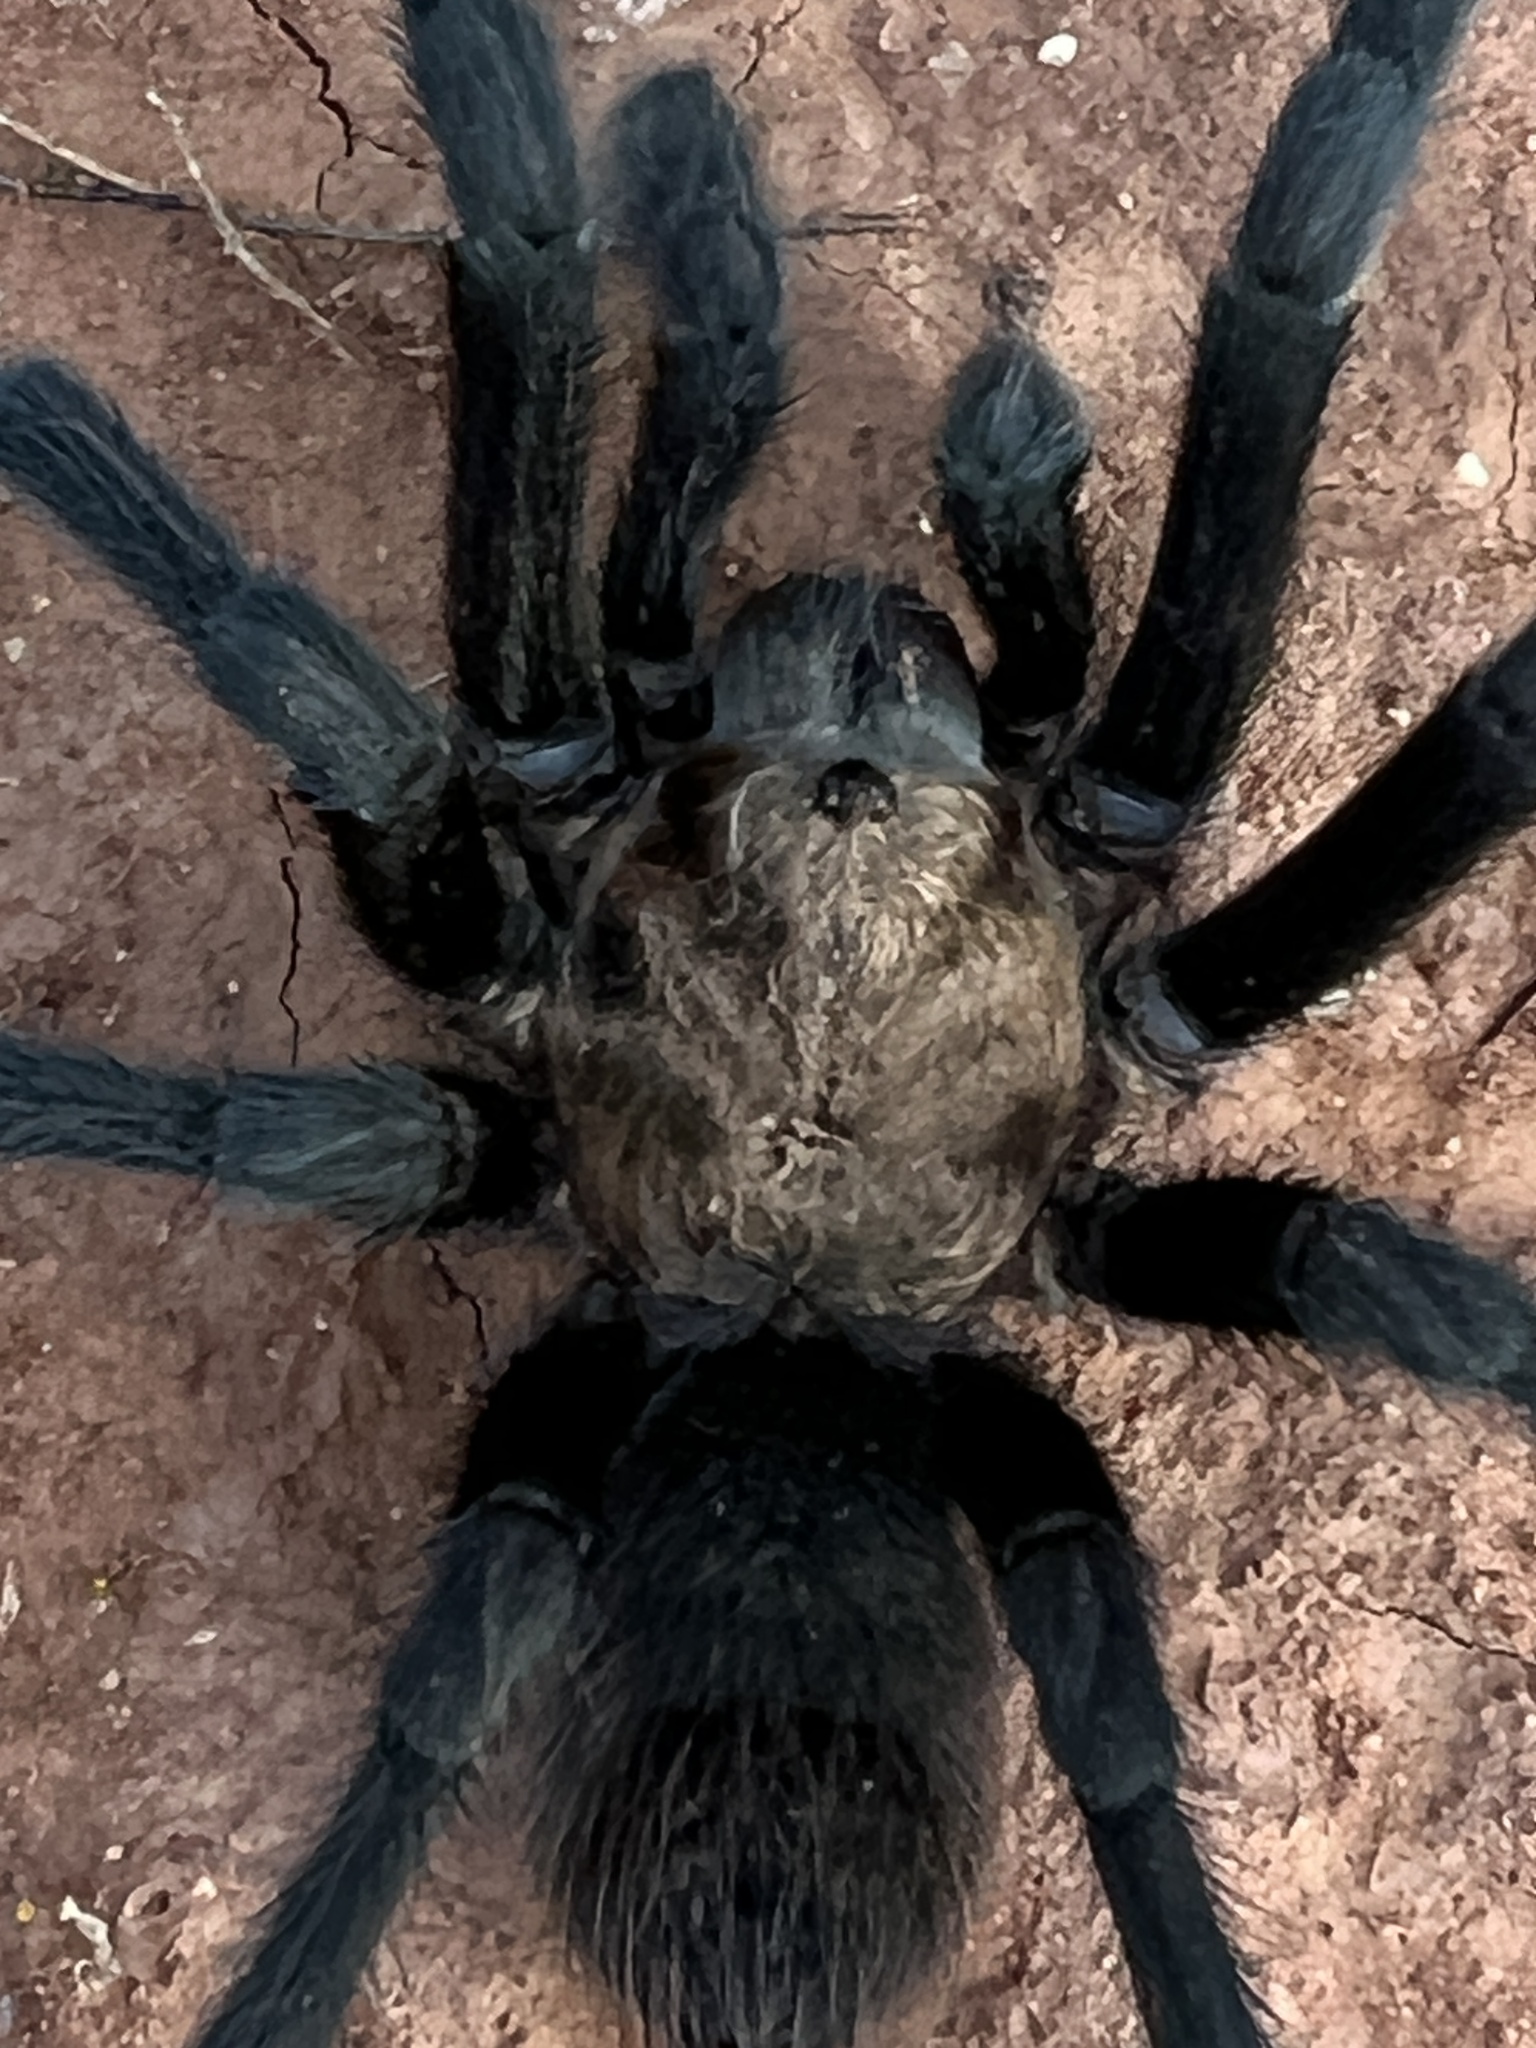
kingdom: Animalia
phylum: Arthropoda
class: Arachnida
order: Araneae
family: Theraphosidae
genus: Aphonopelma
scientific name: Aphonopelma armada
